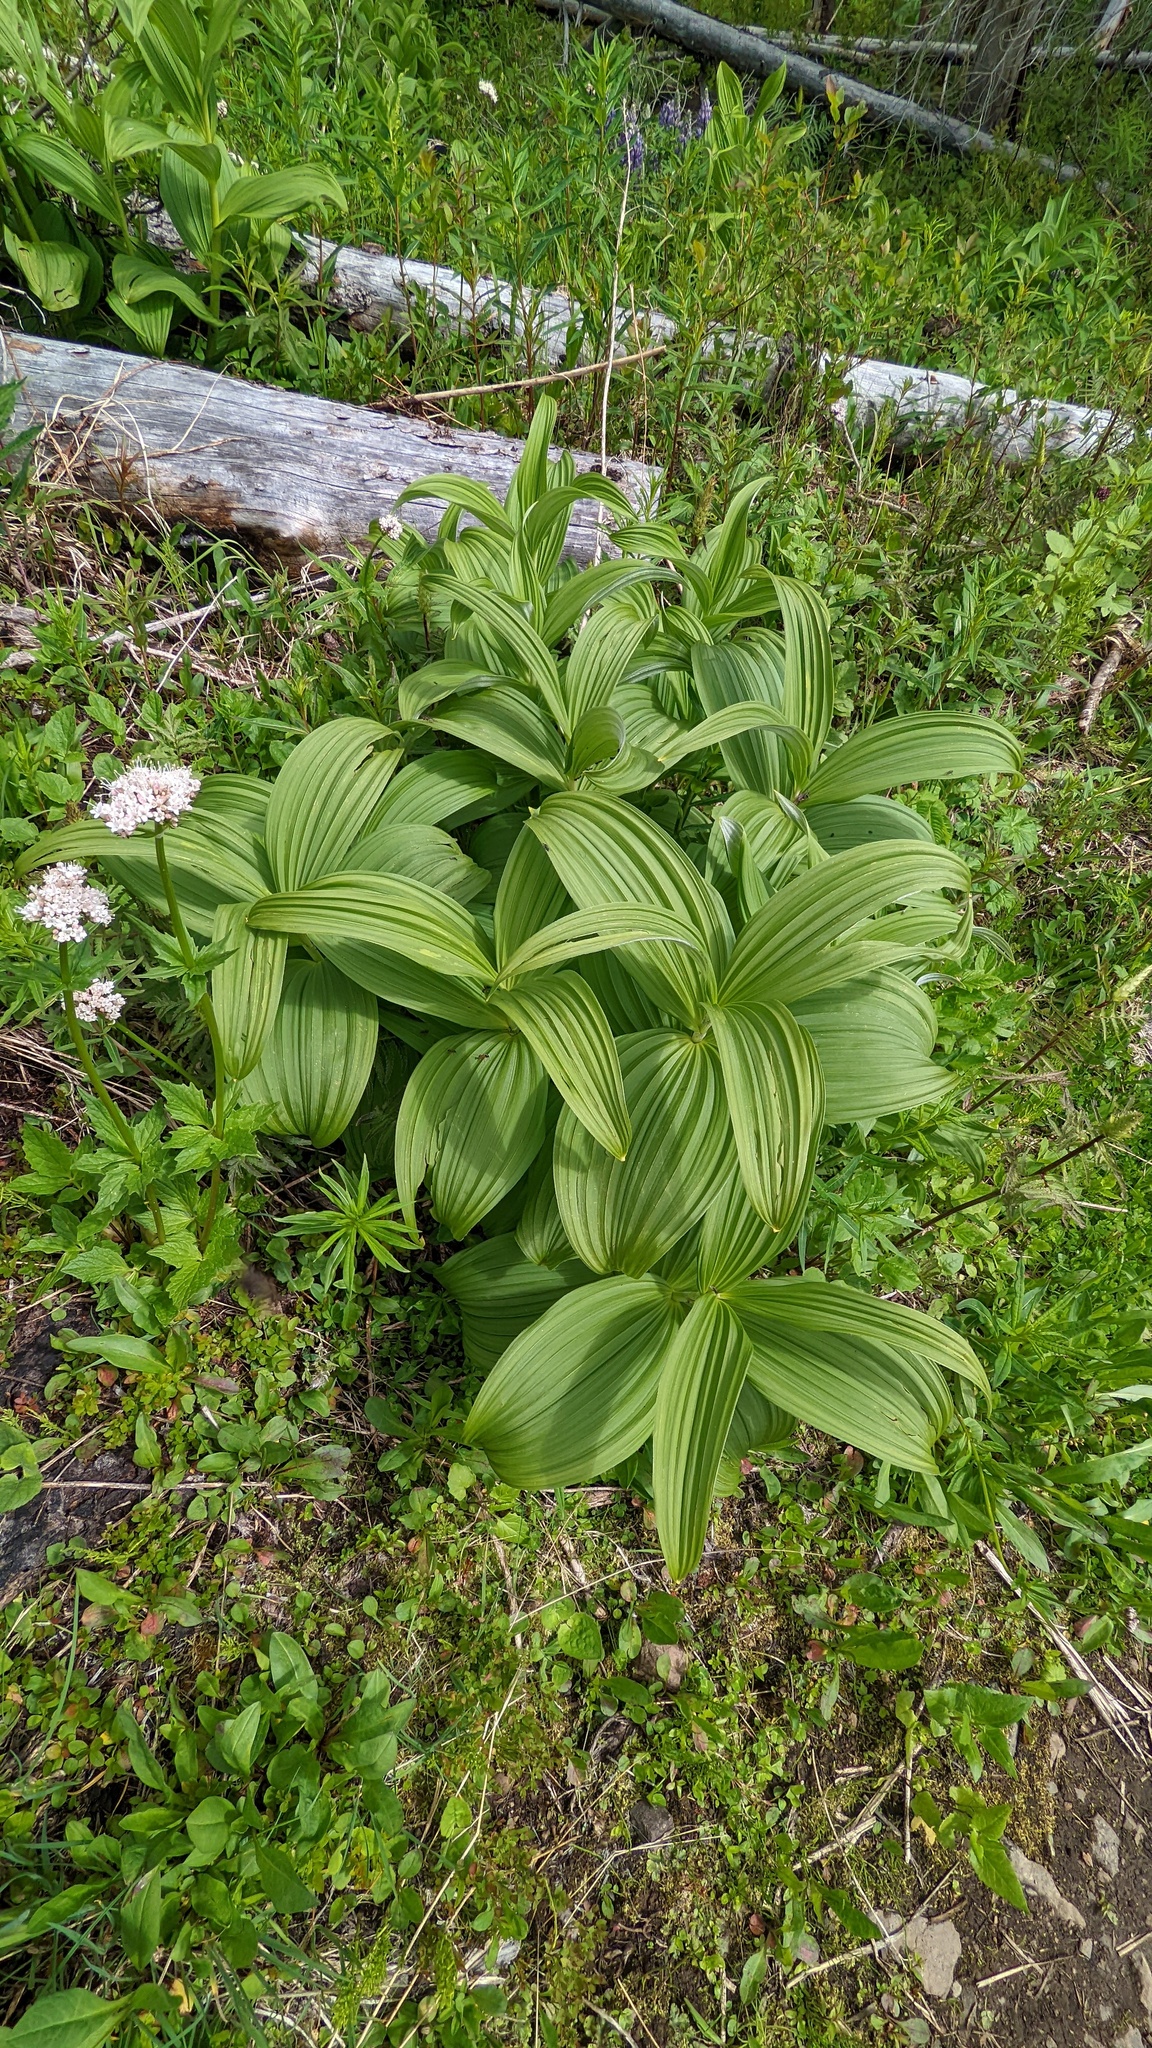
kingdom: Plantae
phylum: Tracheophyta
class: Liliopsida
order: Liliales
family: Melanthiaceae
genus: Veratrum
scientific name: Veratrum viride
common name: American false hellebore
